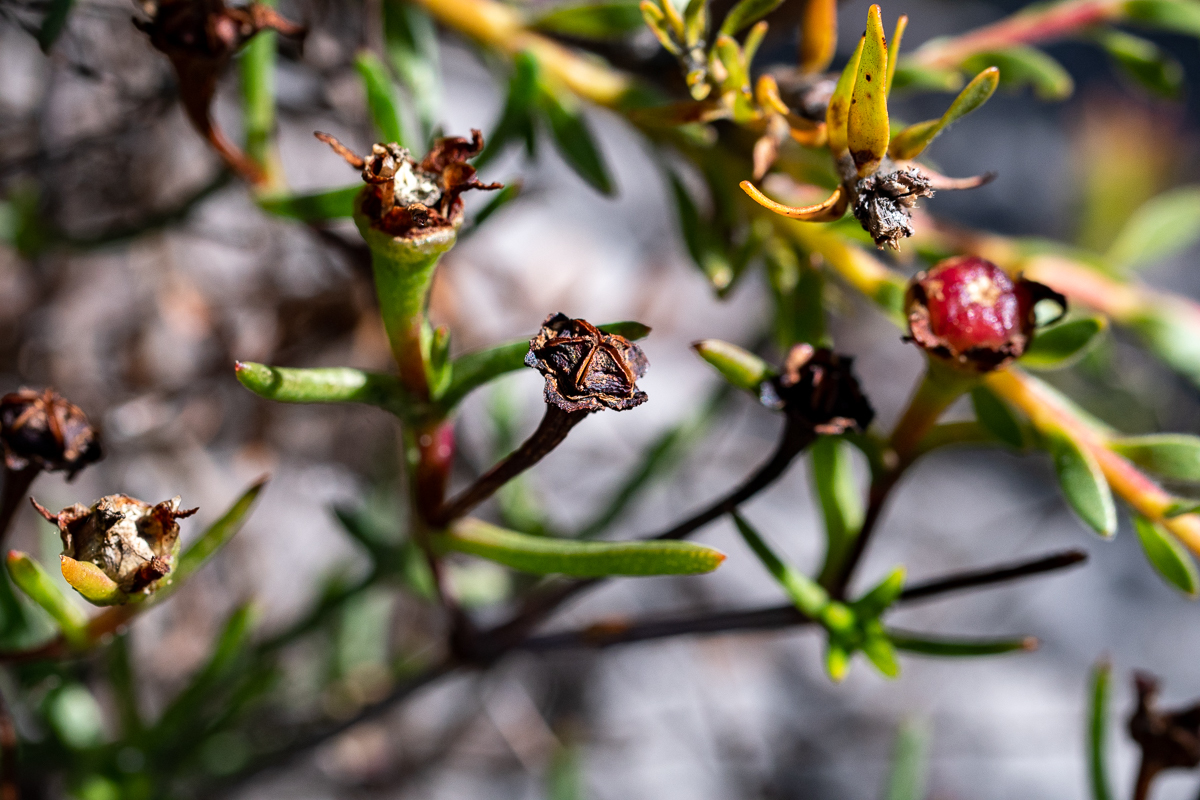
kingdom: Plantae
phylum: Tracheophyta
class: Magnoliopsida
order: Caryophyllales
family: Aizoaceae
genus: Lampranthus
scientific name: Lampranthus bicolor
